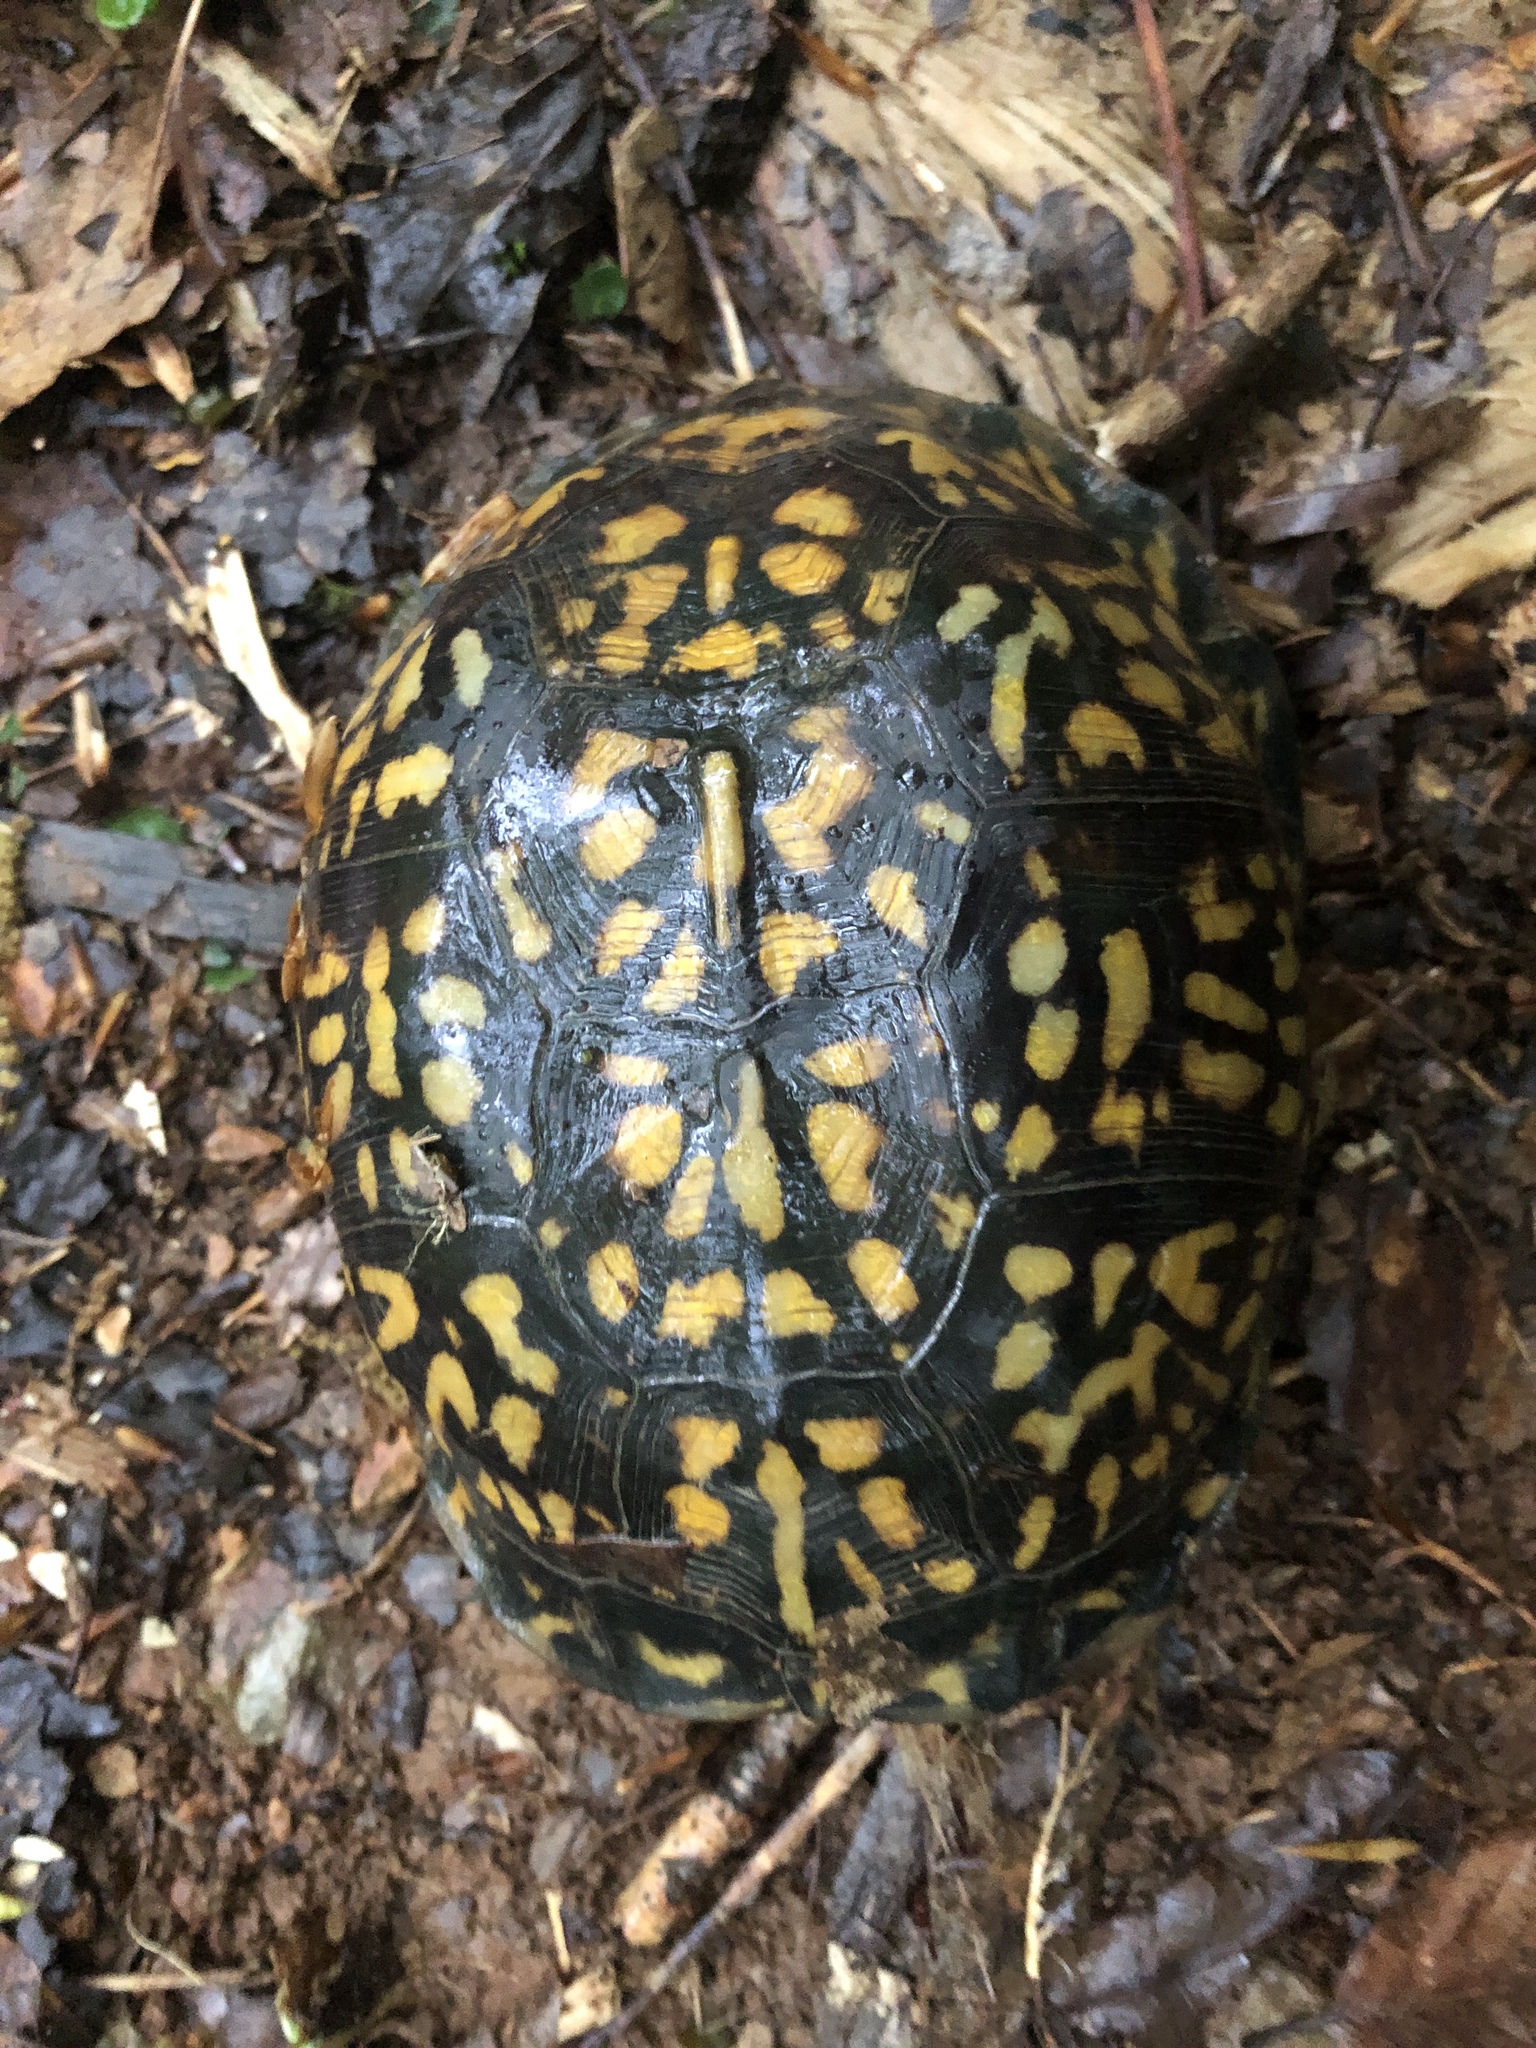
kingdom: Animalia
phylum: Chordata
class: Testudines
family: Emydidae
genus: Terrapene
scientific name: Terrapene carolina
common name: Common box turtle
